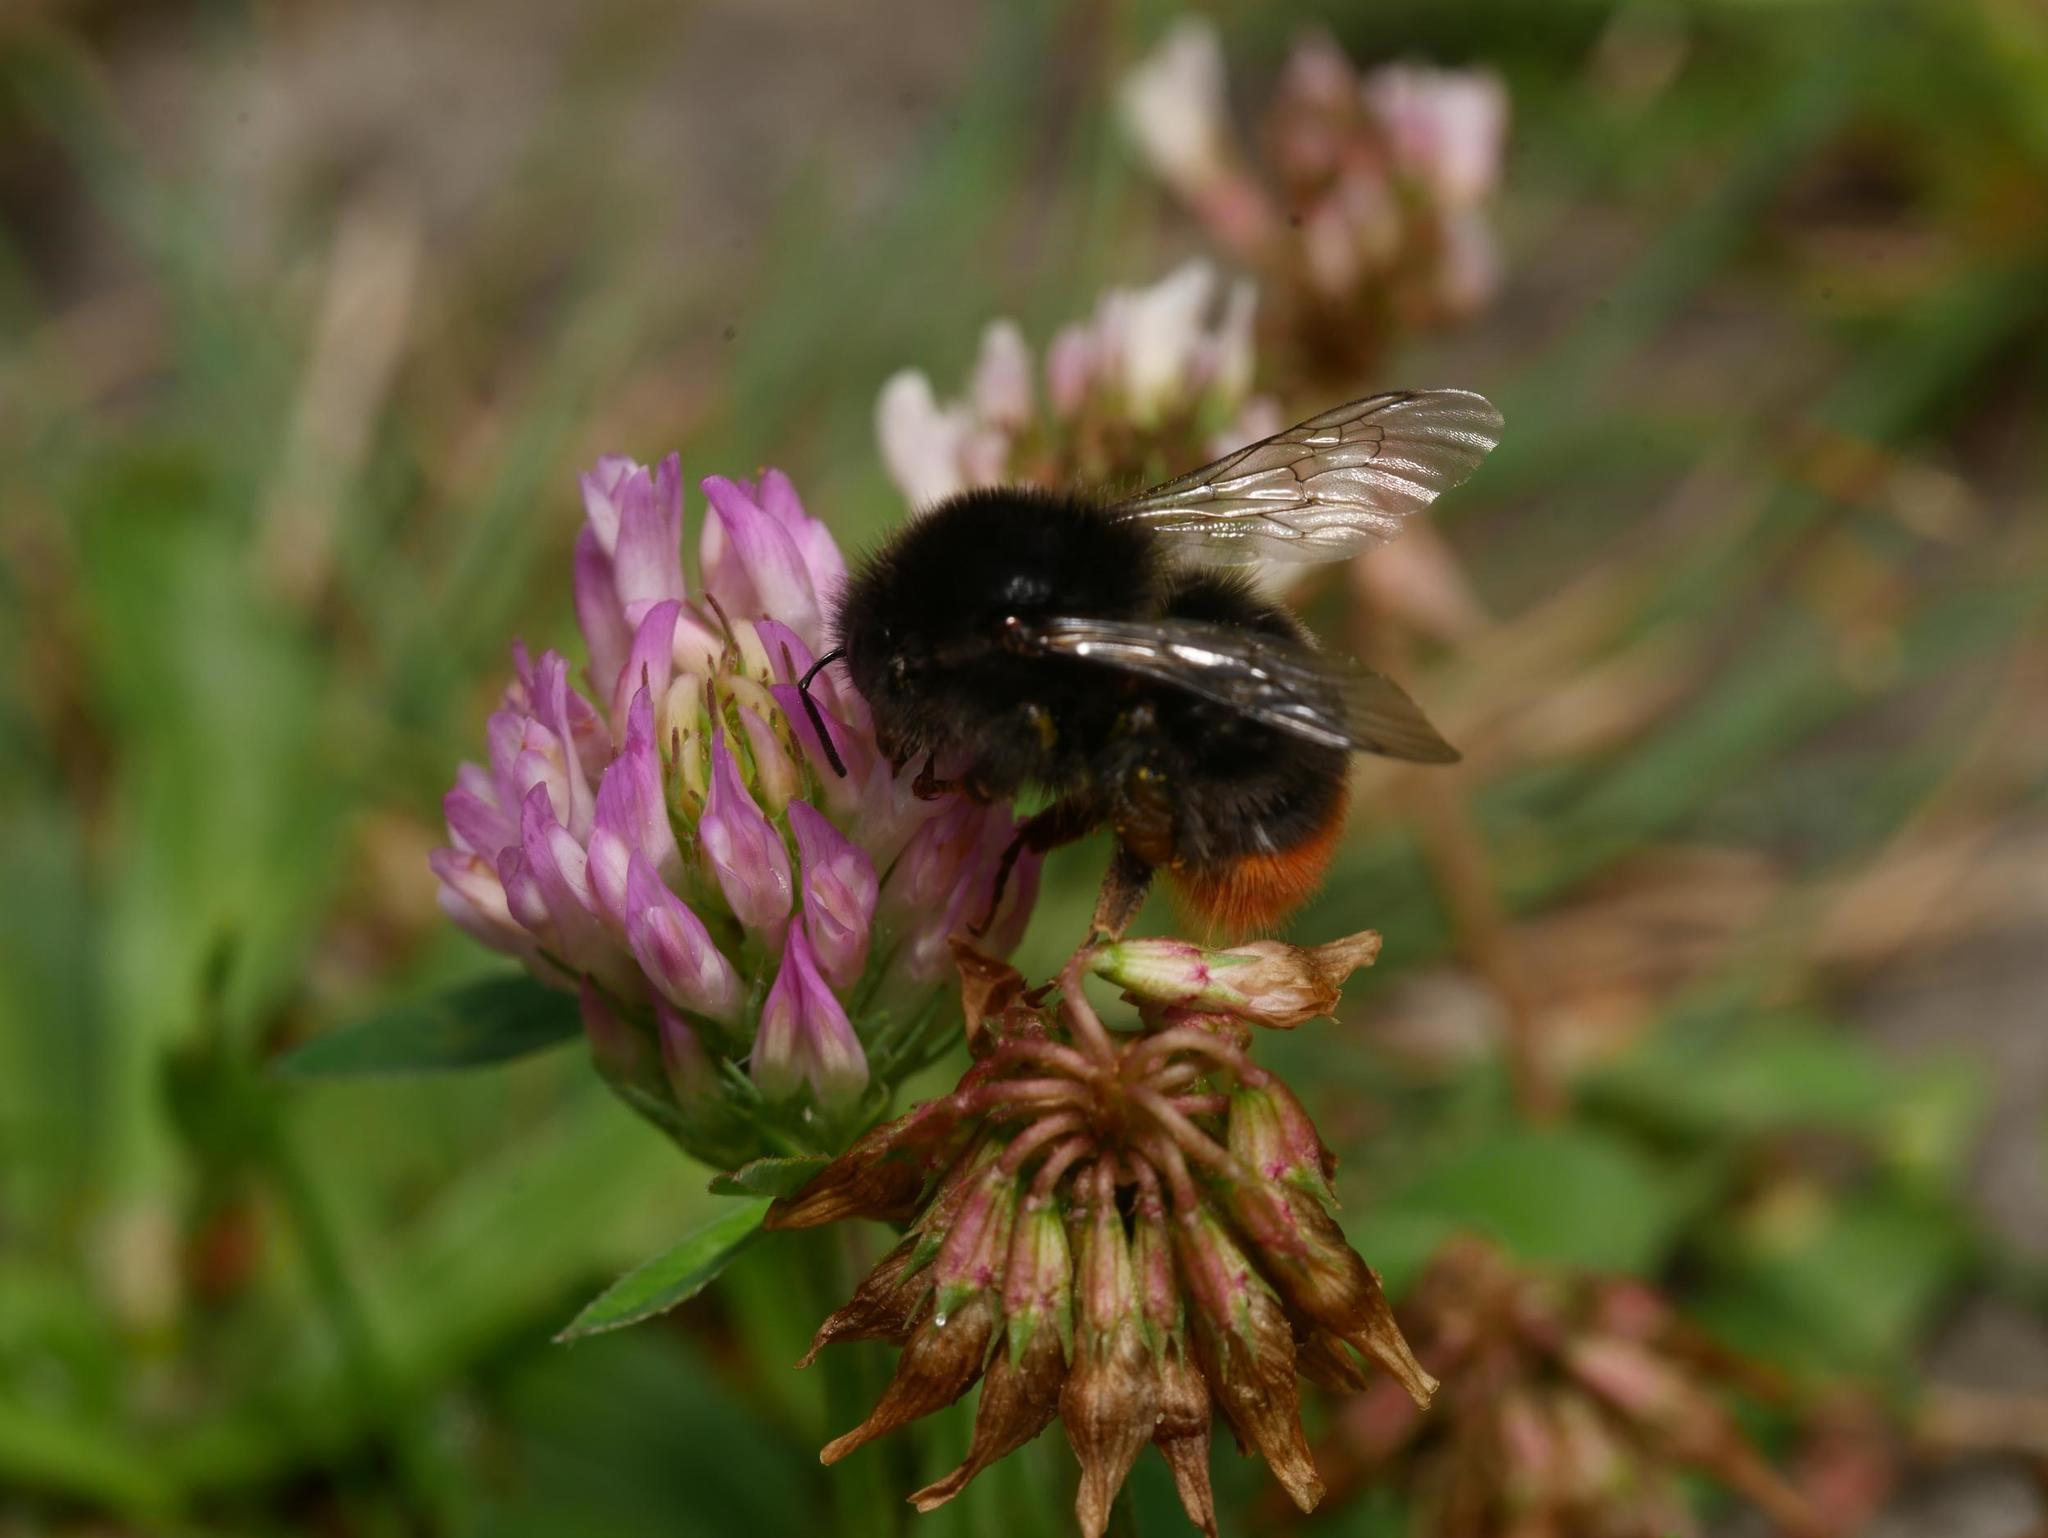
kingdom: Animalia
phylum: Arthropoda
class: Insecta
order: Hymenoptera
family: Apidae
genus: Bombus
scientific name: Bombus lapidarius
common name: Large red-tailed humble-bee
